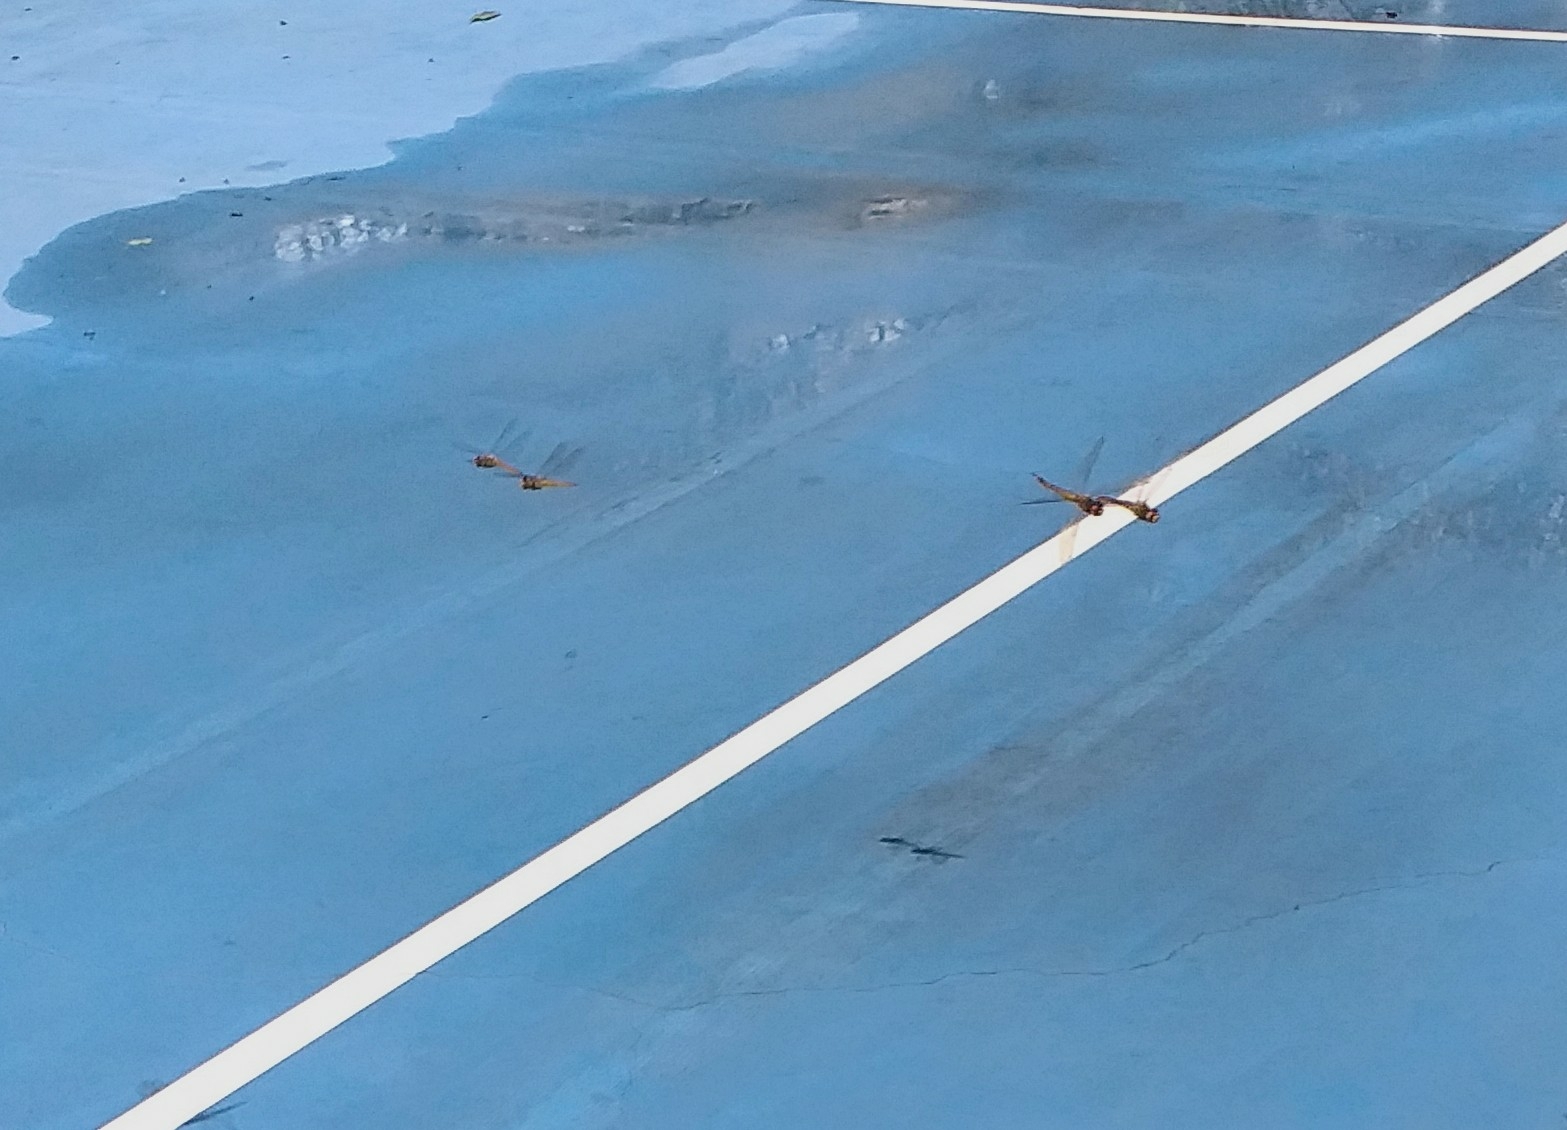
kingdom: Animalia
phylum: Arthropoda
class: Insecta
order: Odonata
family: Libellulidae
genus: Pantala
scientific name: Pantala flavescens
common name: Wandering glider
